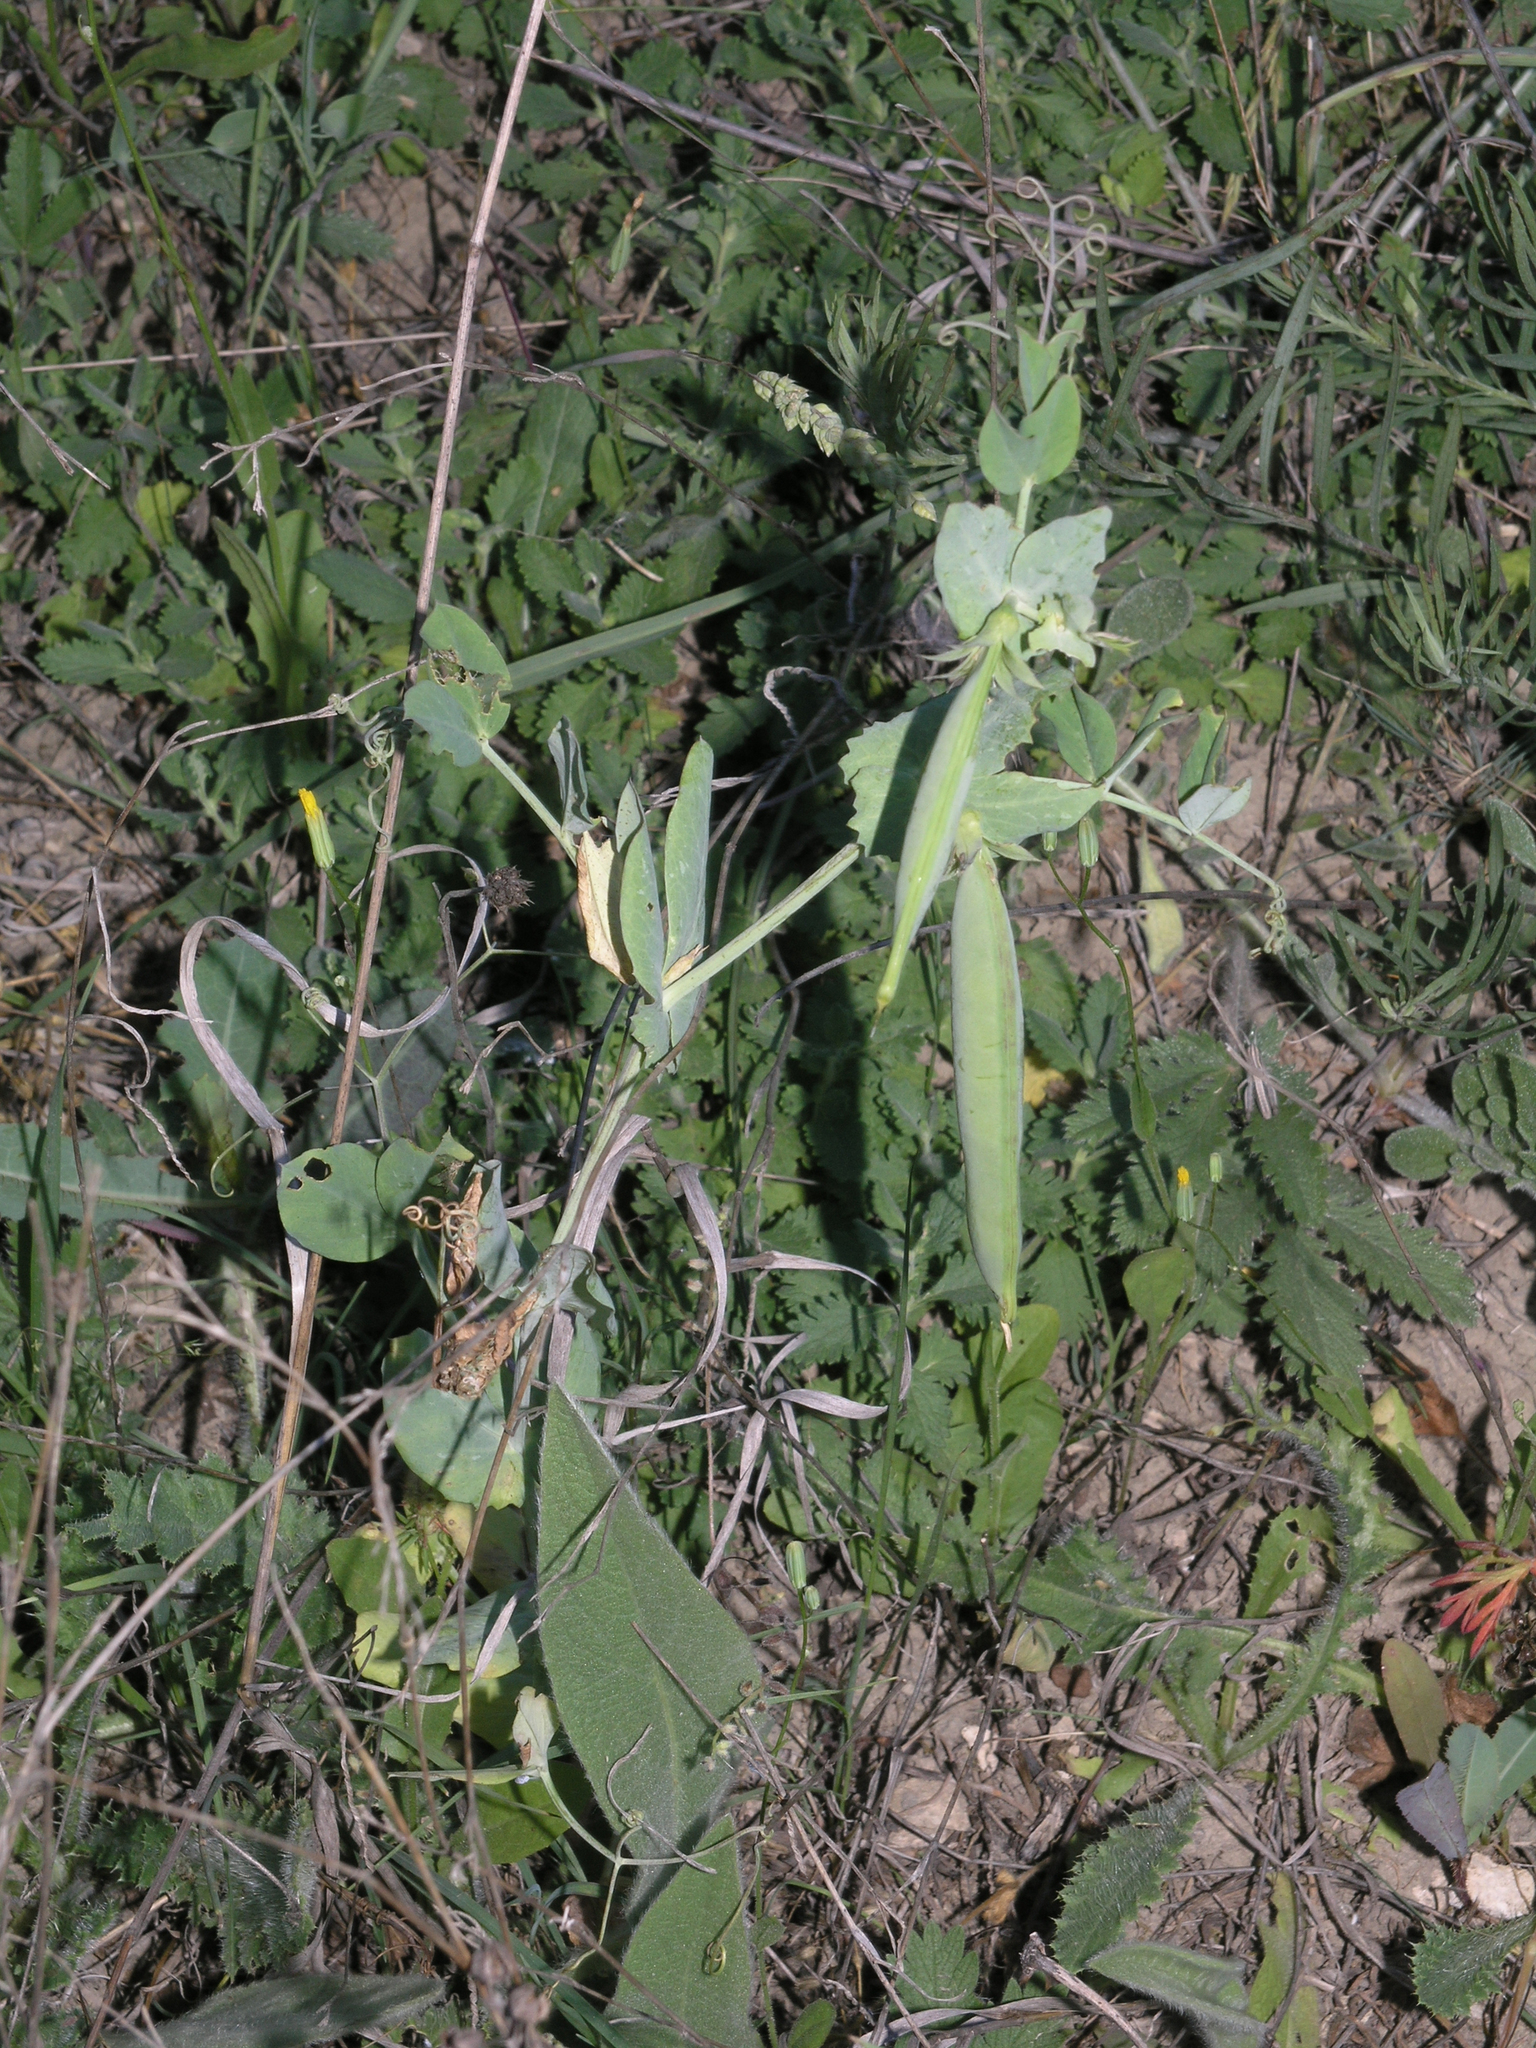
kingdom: Plantae
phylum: Tracheophyta
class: Magnoliopsida
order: Fabales
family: Fabaceae
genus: Lathyrus
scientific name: Lathyrus oleraceus
